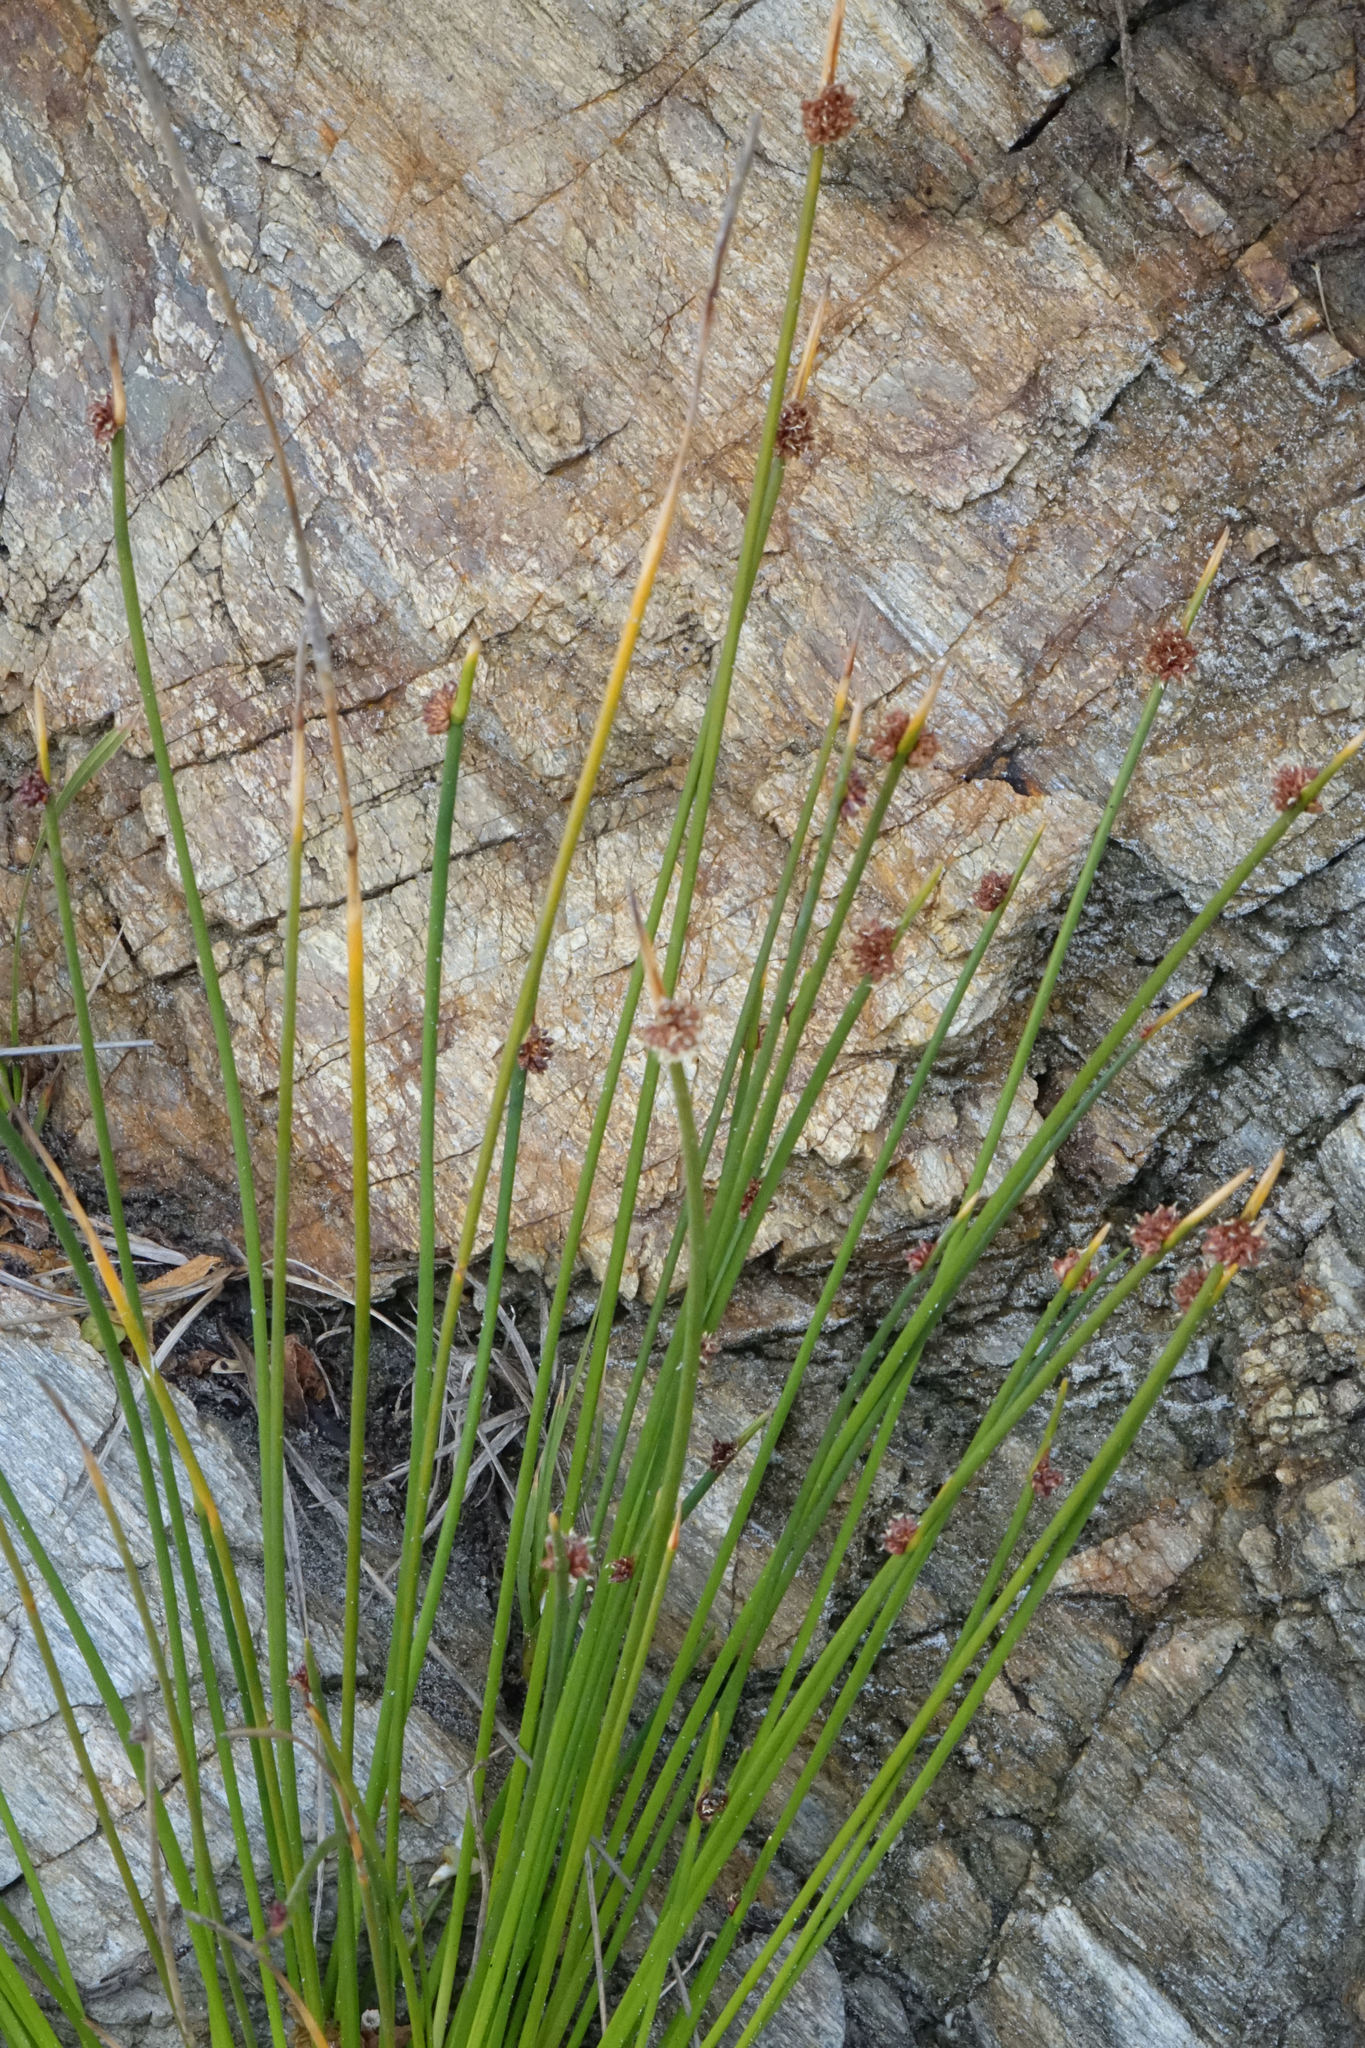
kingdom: Plantae
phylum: Tracheophyta
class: Liliopsida
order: Poales
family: Cyperaceae
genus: Ficinia
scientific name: Ficinia nodosa
